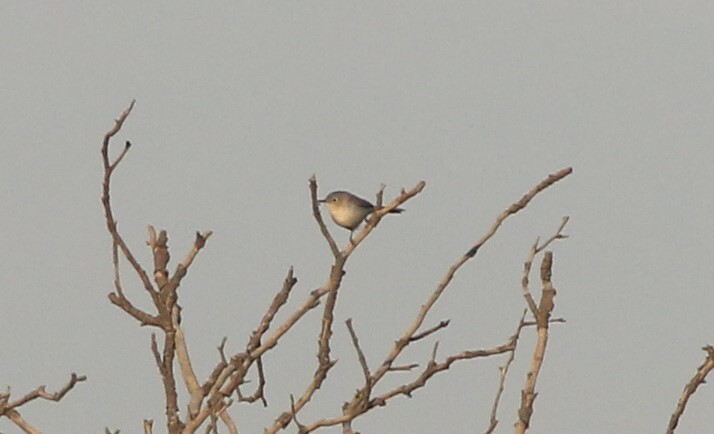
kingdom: Animalia
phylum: Chordata
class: Aves
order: Passeriformes
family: Polioptilidae
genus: Polioptila
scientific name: Polioptila caerulea
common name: Blue-gray gnatcatcher
